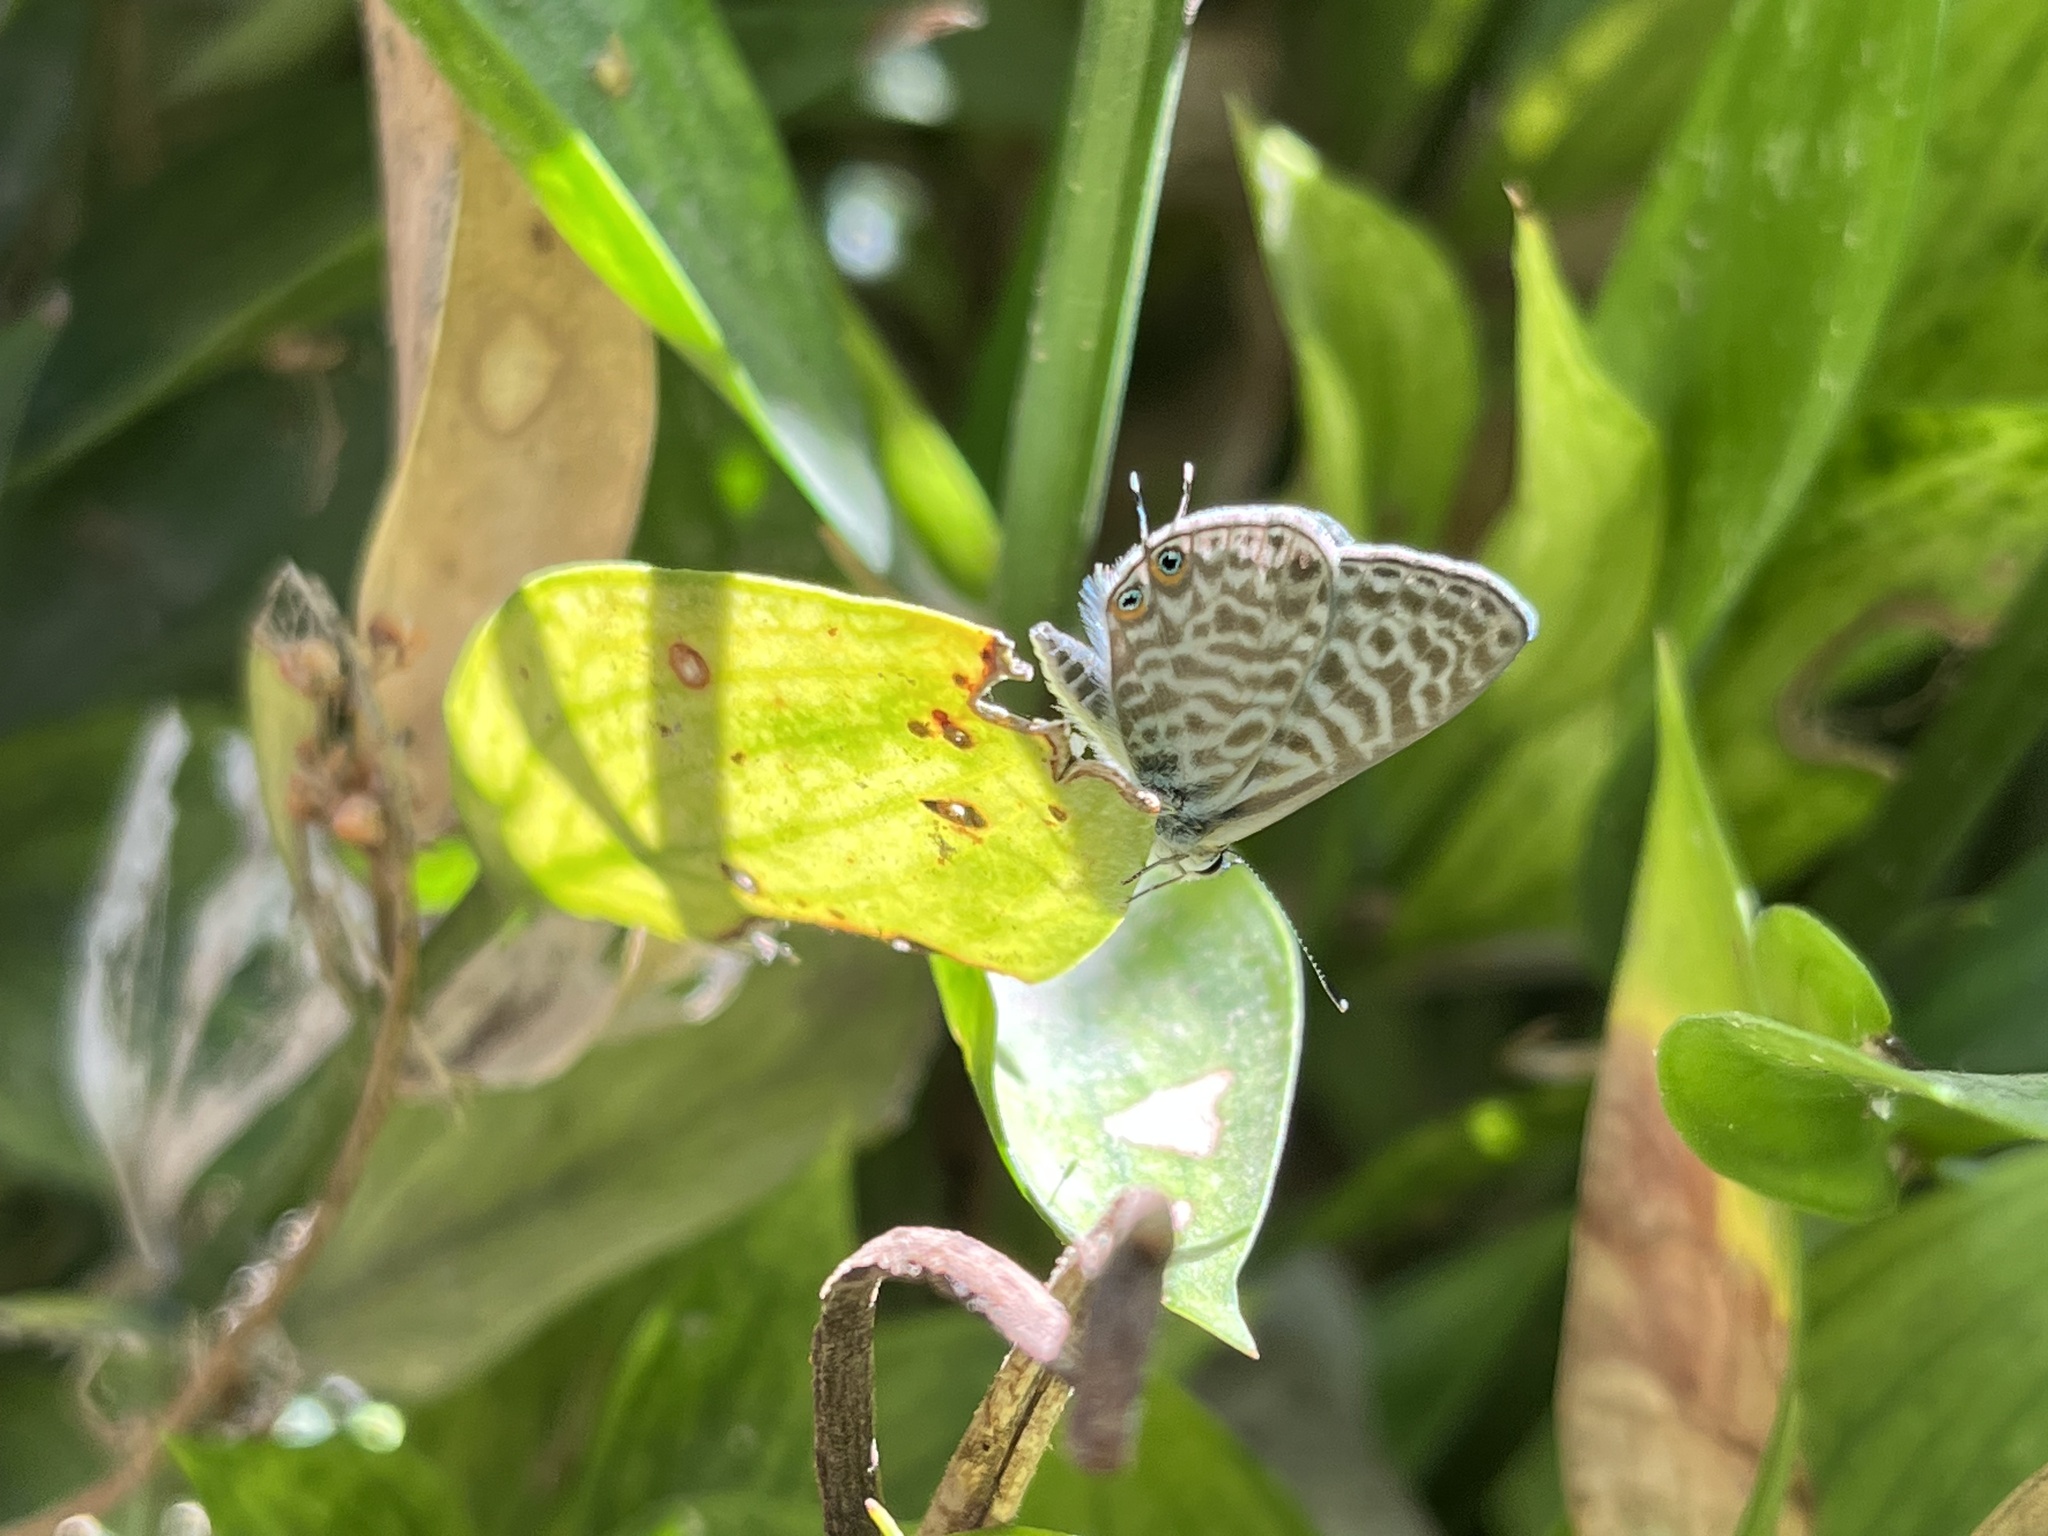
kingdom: Animalia
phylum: Arthropoda
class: Insecta
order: Lepidoptera
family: Lycaenidae
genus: Leptotes
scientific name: Leptotes pirithous
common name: Lang's short-tailed blue
